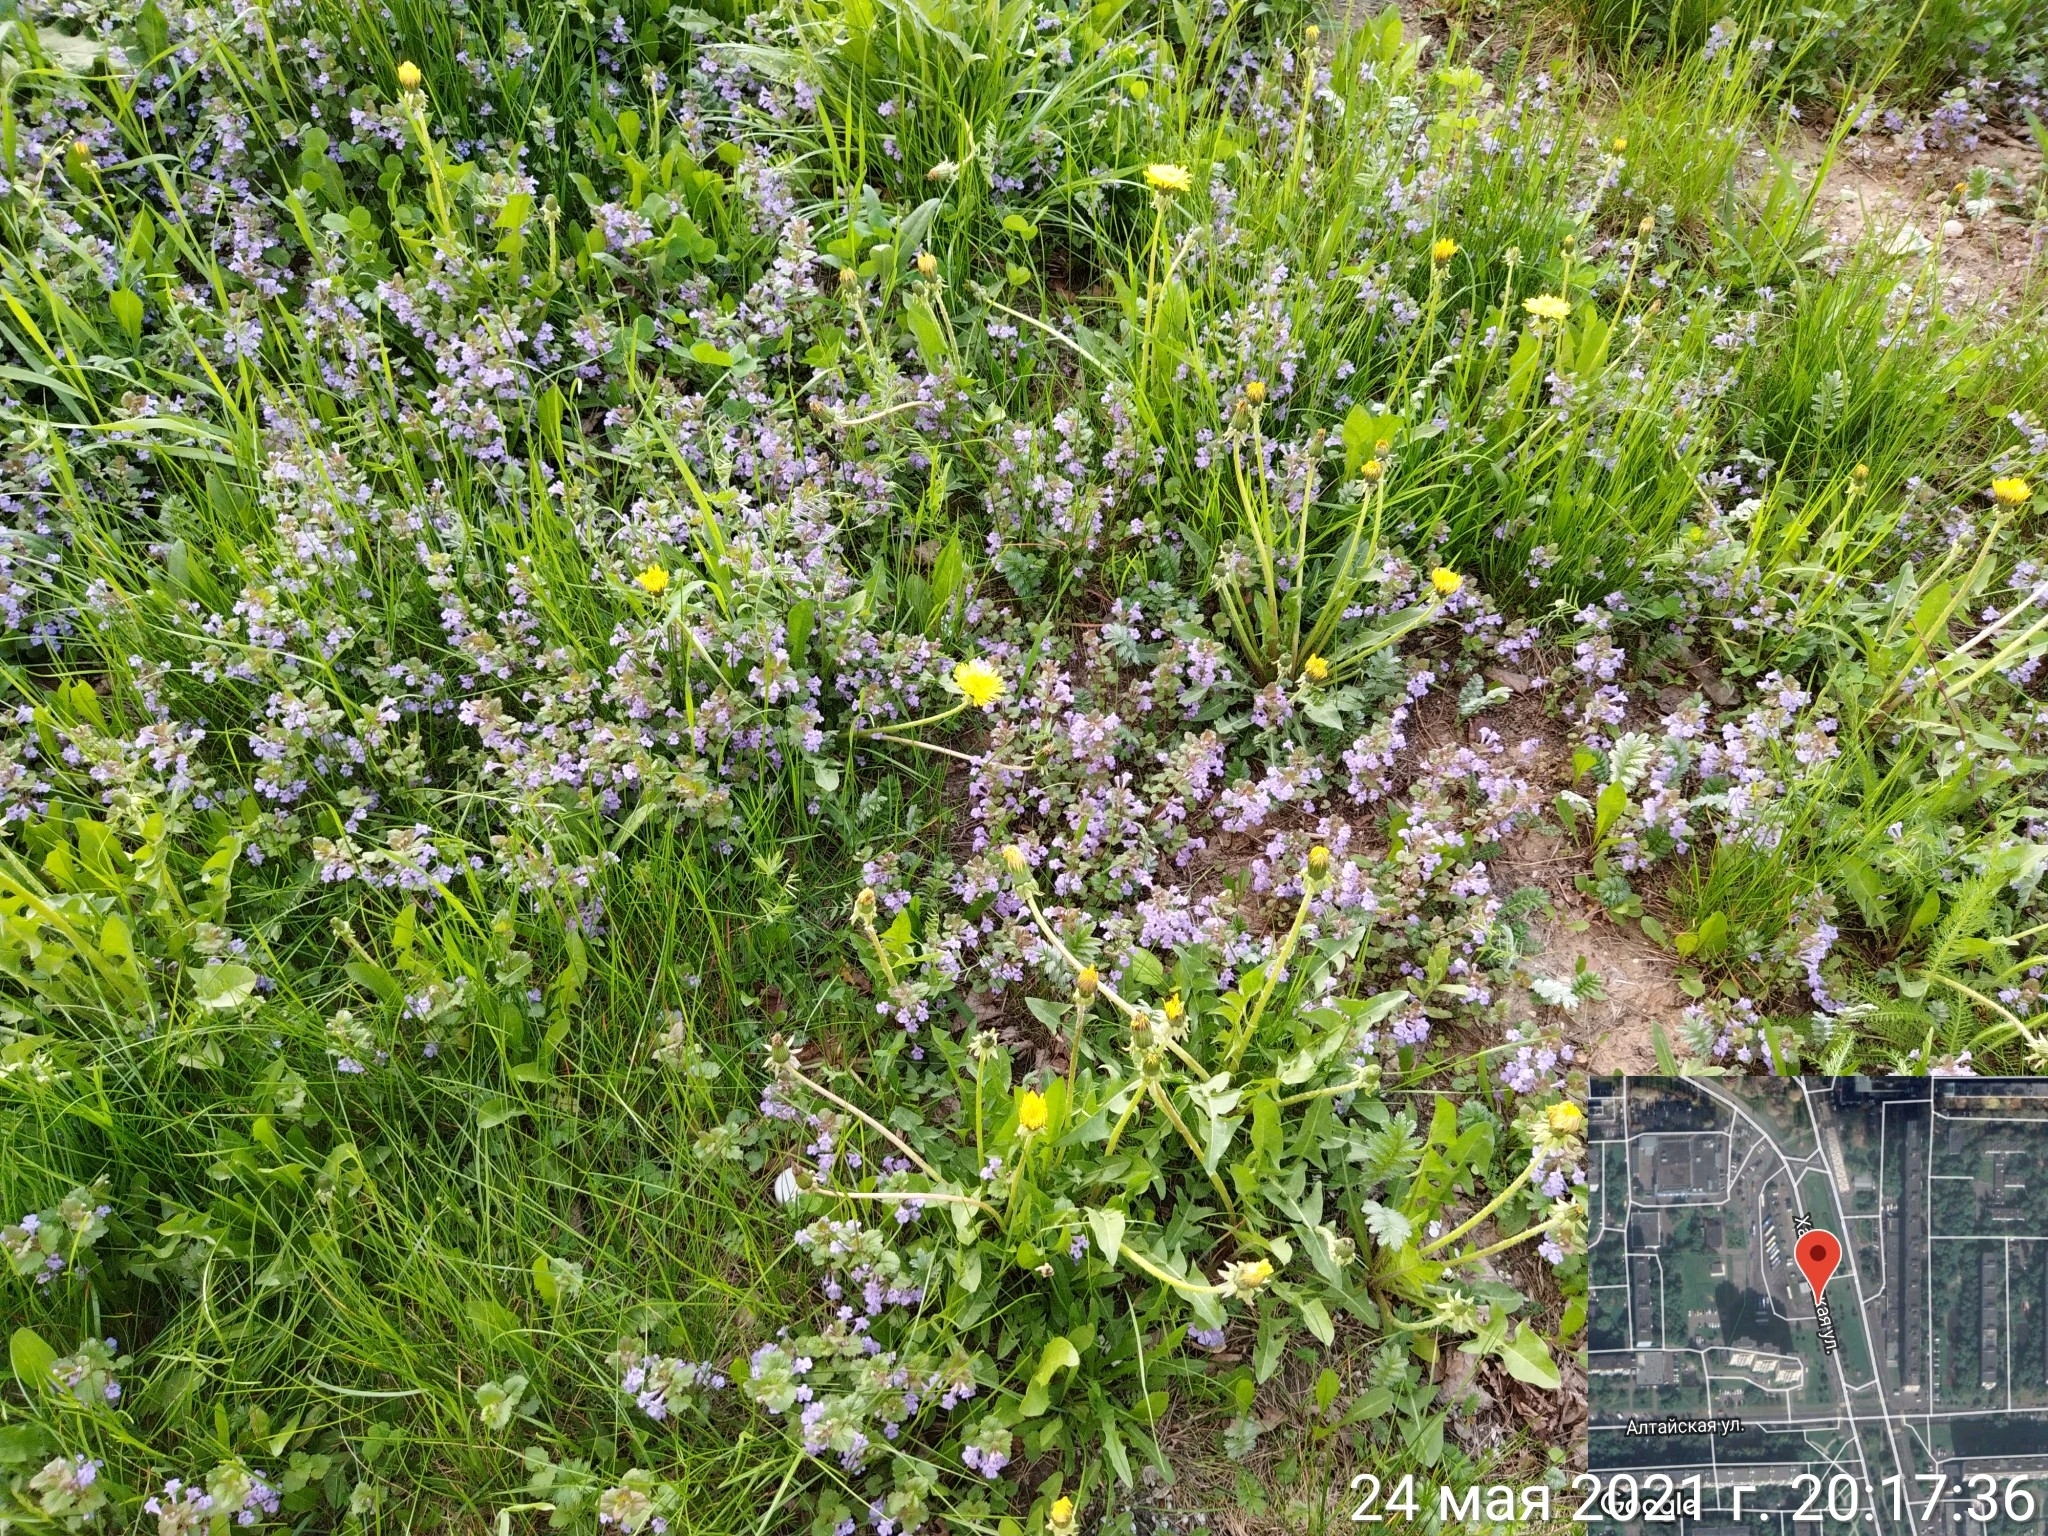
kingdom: Plantae
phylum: Tracheophyta
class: Magnoliopsida
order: Lamiales
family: Lamiaceae
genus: Glechoma
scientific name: Glechoma hederacea
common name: Ground ivy
